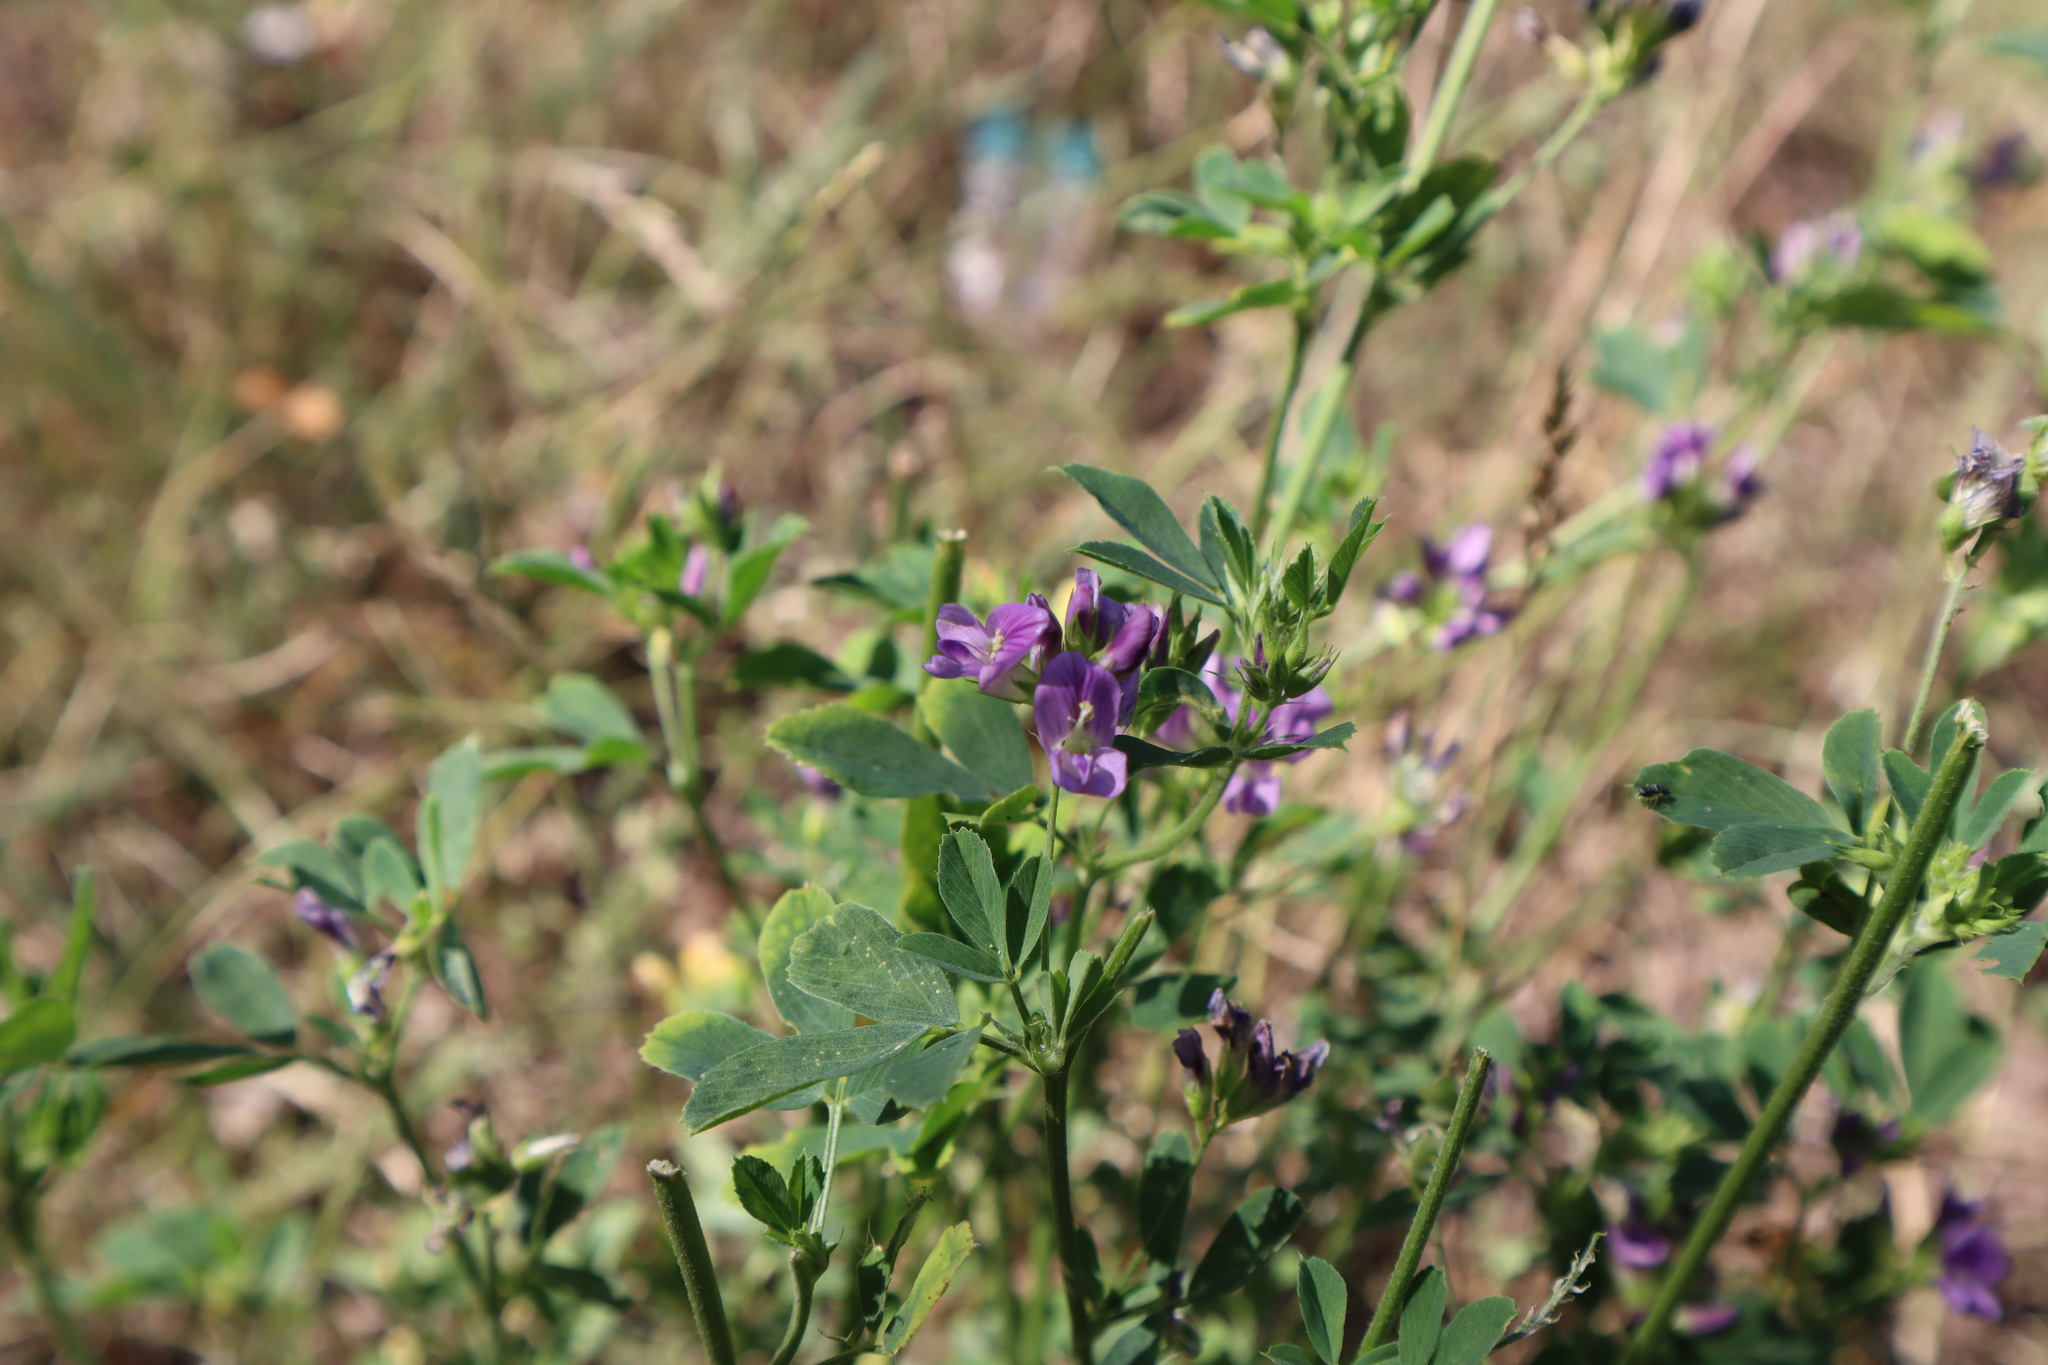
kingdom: Plantae
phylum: Tracheophyta
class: Magnoliopsida
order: Fabales
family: Fabaceae
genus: Medicago
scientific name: Medicago sativa
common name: Alfalfa
